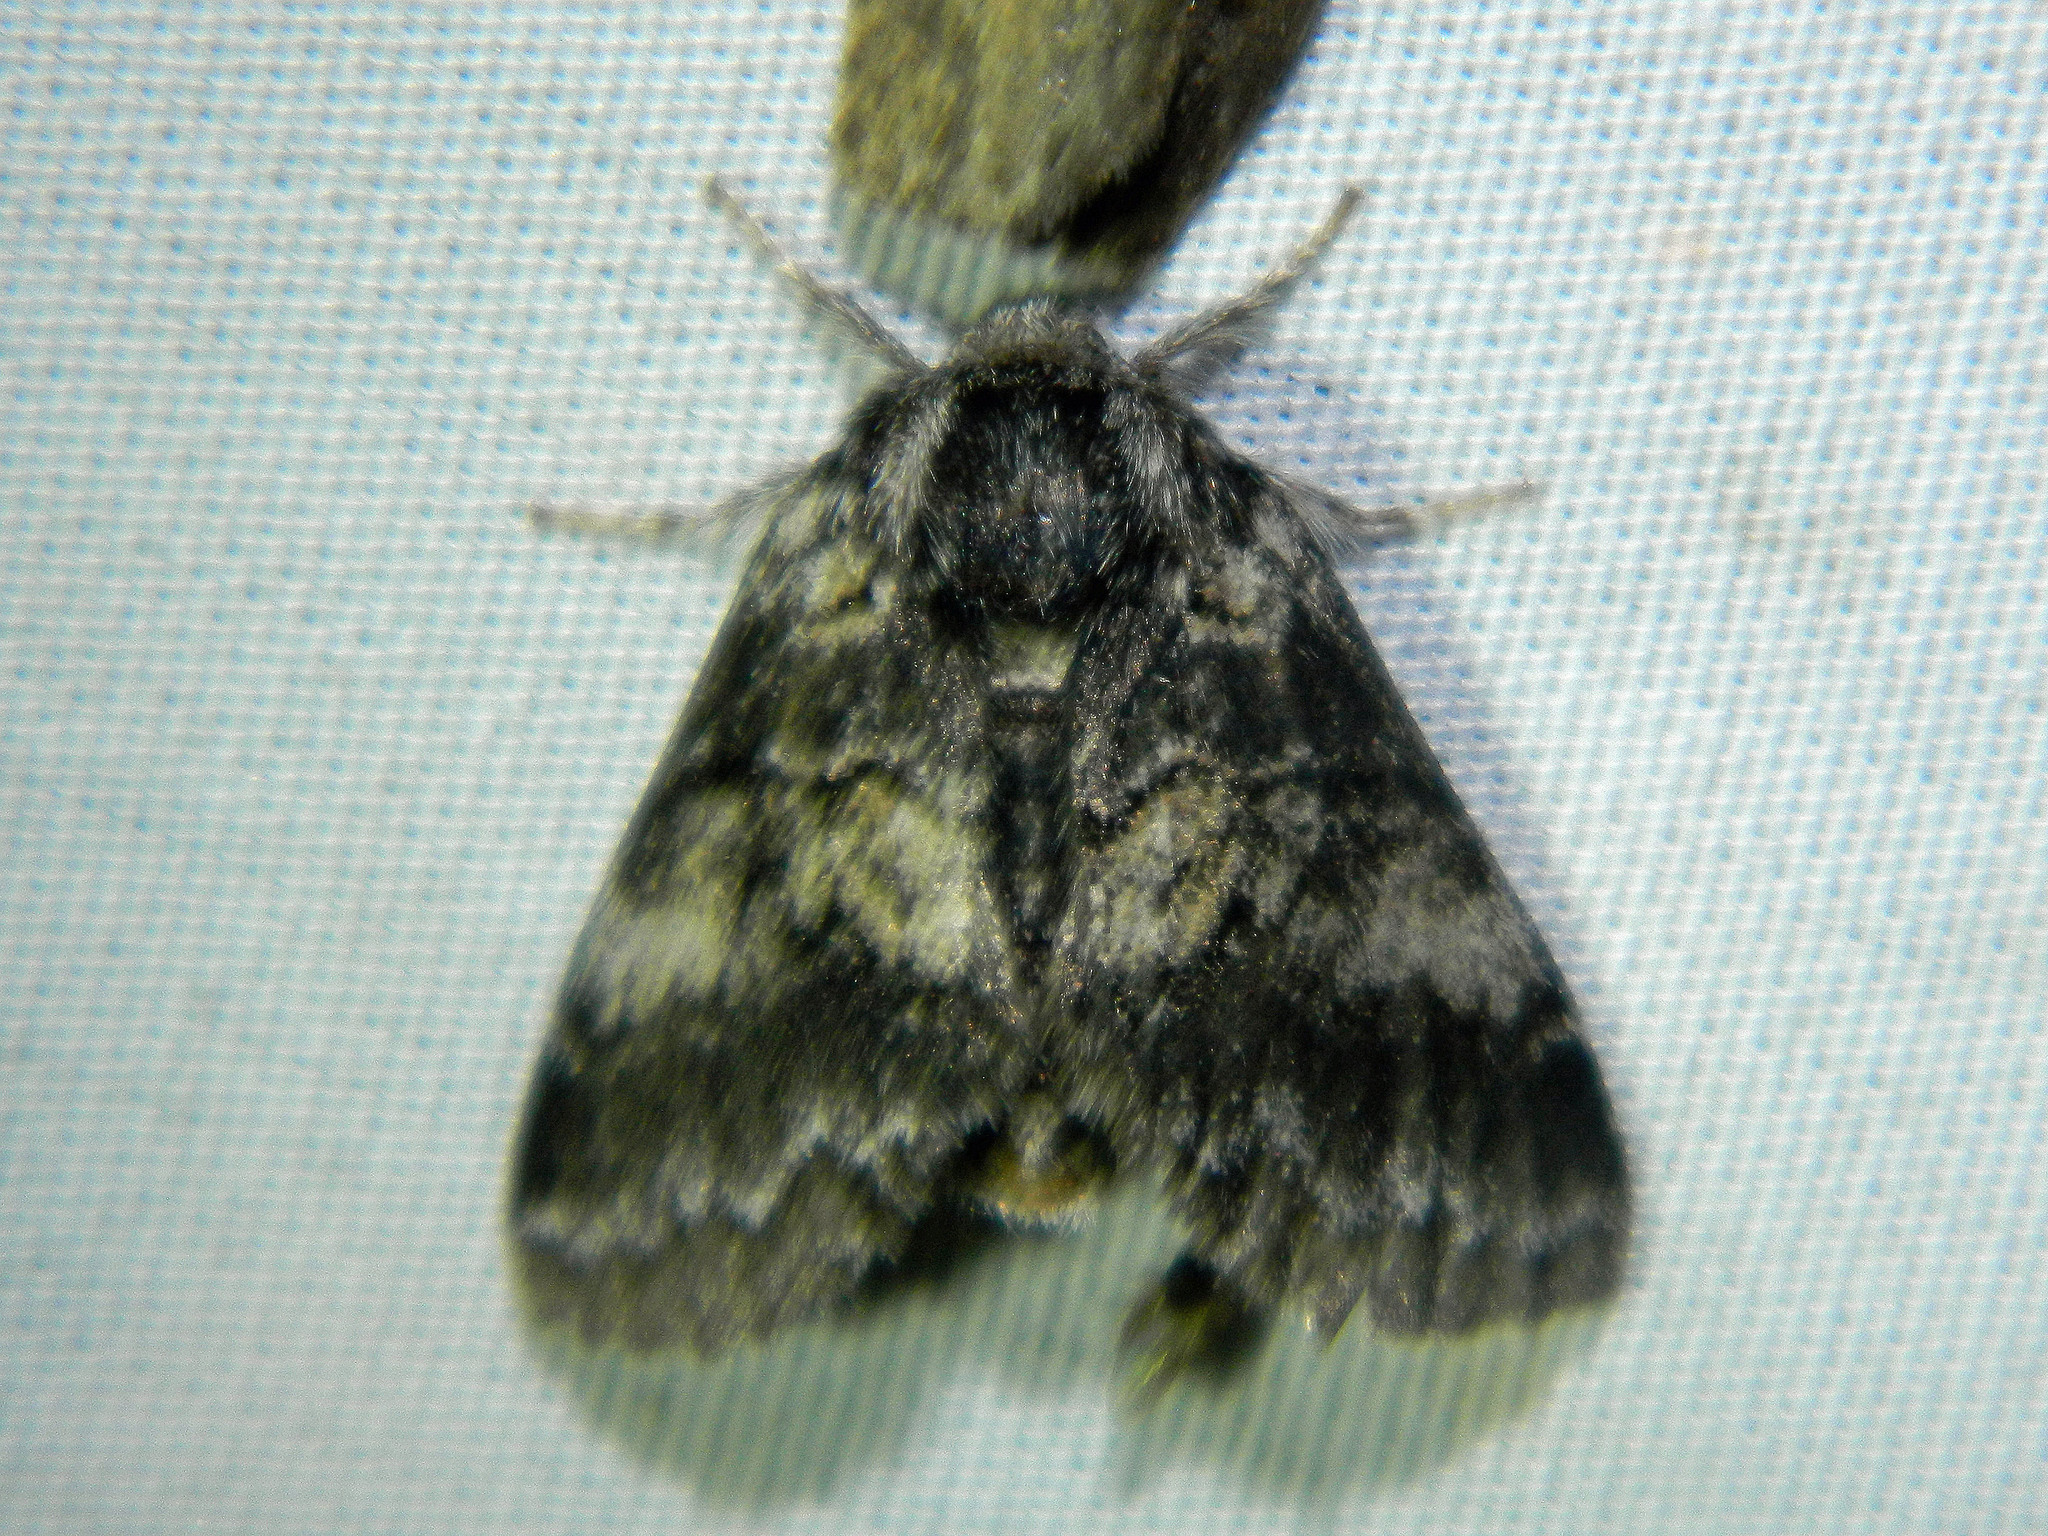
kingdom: Animalia
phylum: Arthropoda
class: Insecta
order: Lepidoptera
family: Notodontidae
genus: Gluphisia
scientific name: Gluphisia septentrionis
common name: Common gluphisia
